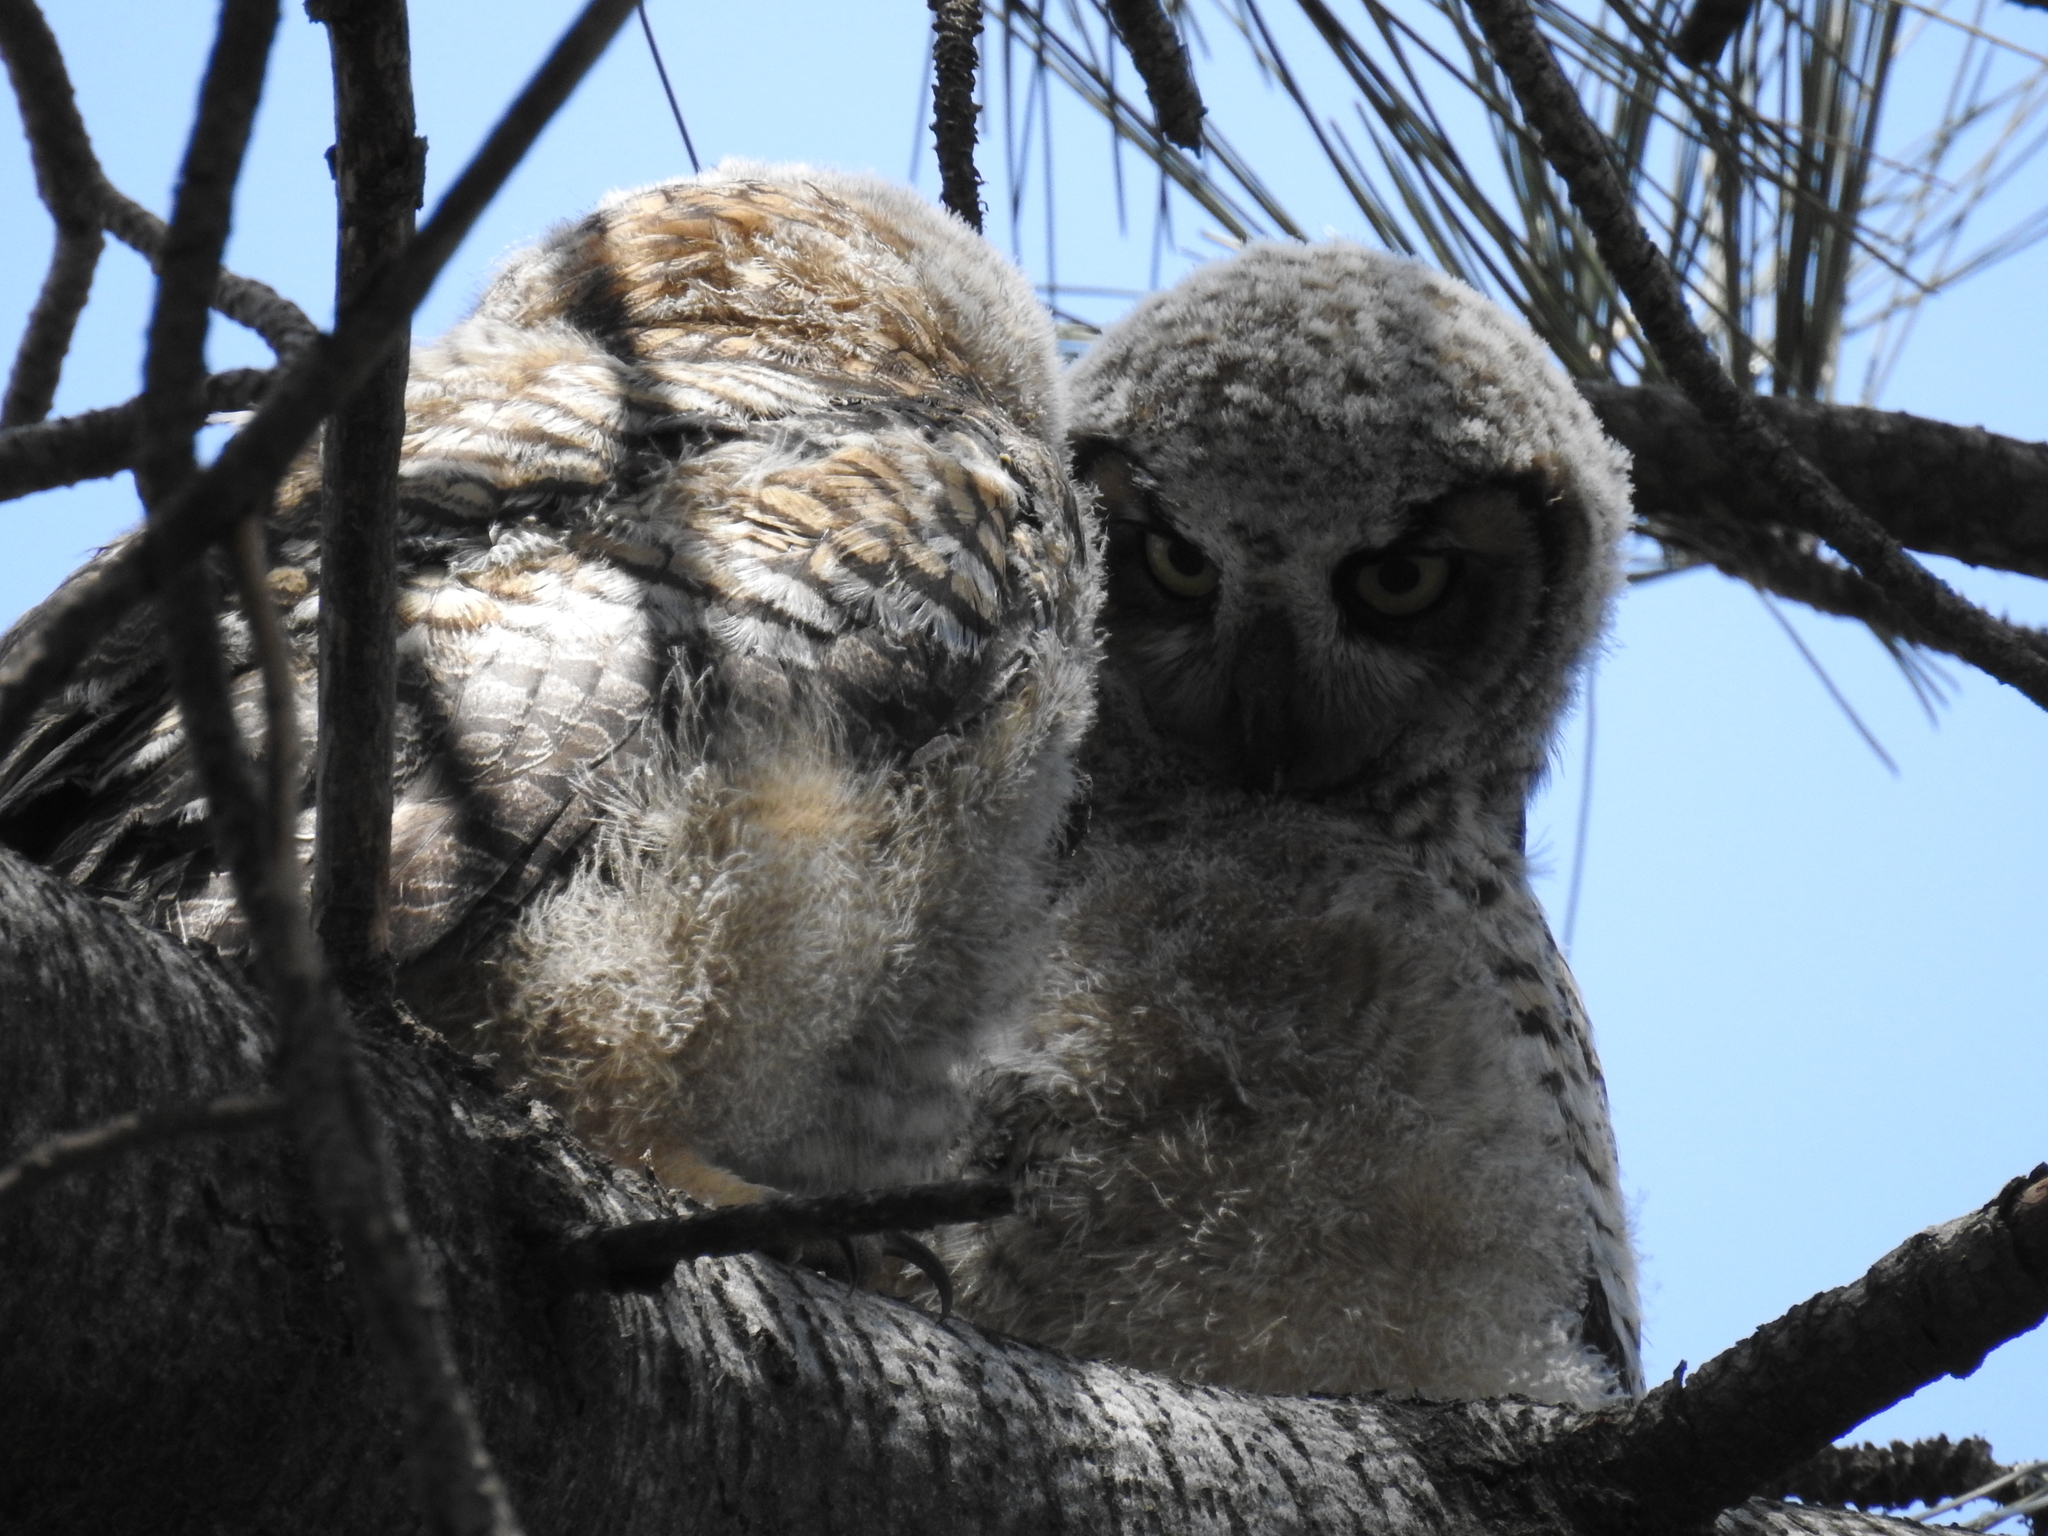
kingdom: Animalia
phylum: Chordata
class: Aves
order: Strigiformes
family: Strigidae
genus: Bubo
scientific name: Bubo virginianus
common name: Great horned owl
